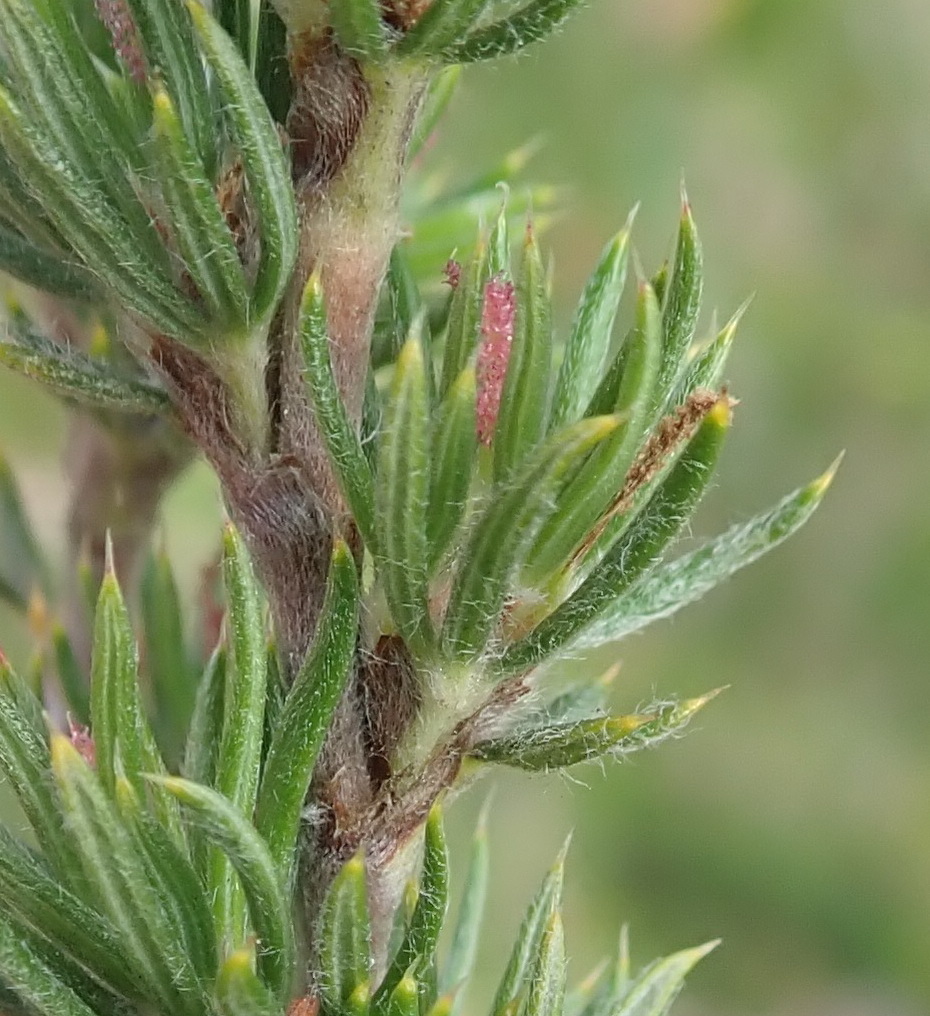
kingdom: Plantae
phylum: Tracheophyta
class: Magnoliopsida
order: Rosales
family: Rosaceae
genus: Cliffortia
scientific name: Cliffortia stricta
